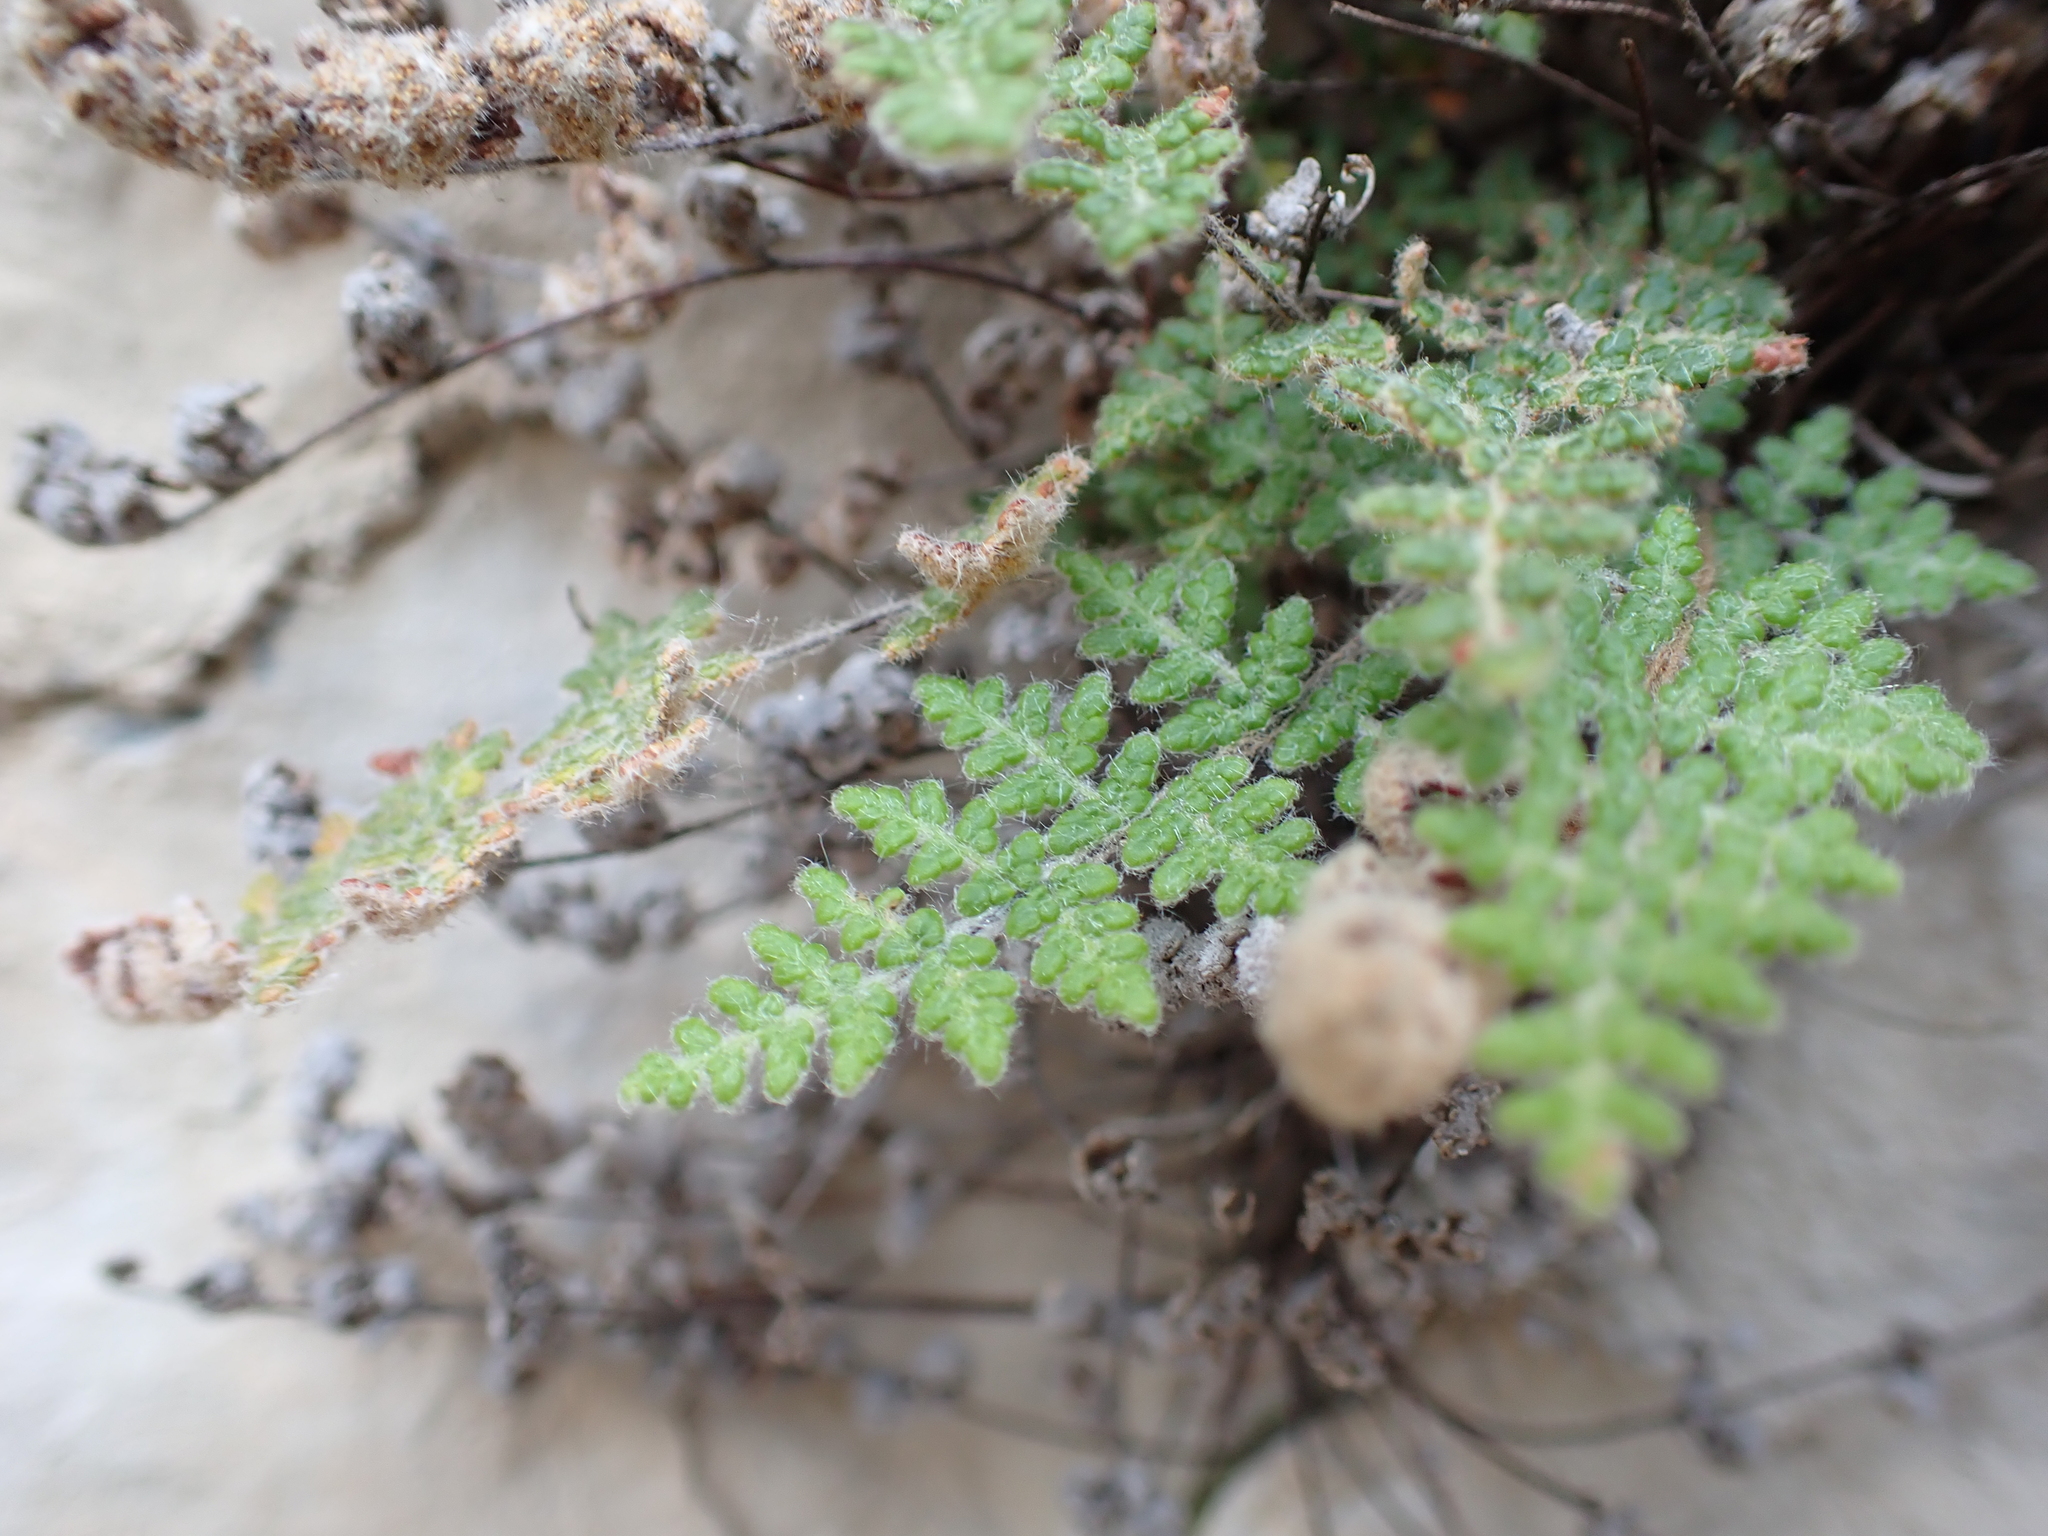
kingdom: Plantae
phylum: Tracheophyta
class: Polypodiopsida
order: Polypodiales
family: Pteridaceae
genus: Myriopteris
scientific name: Myriopteris gracilis
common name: Fee's lip fern
